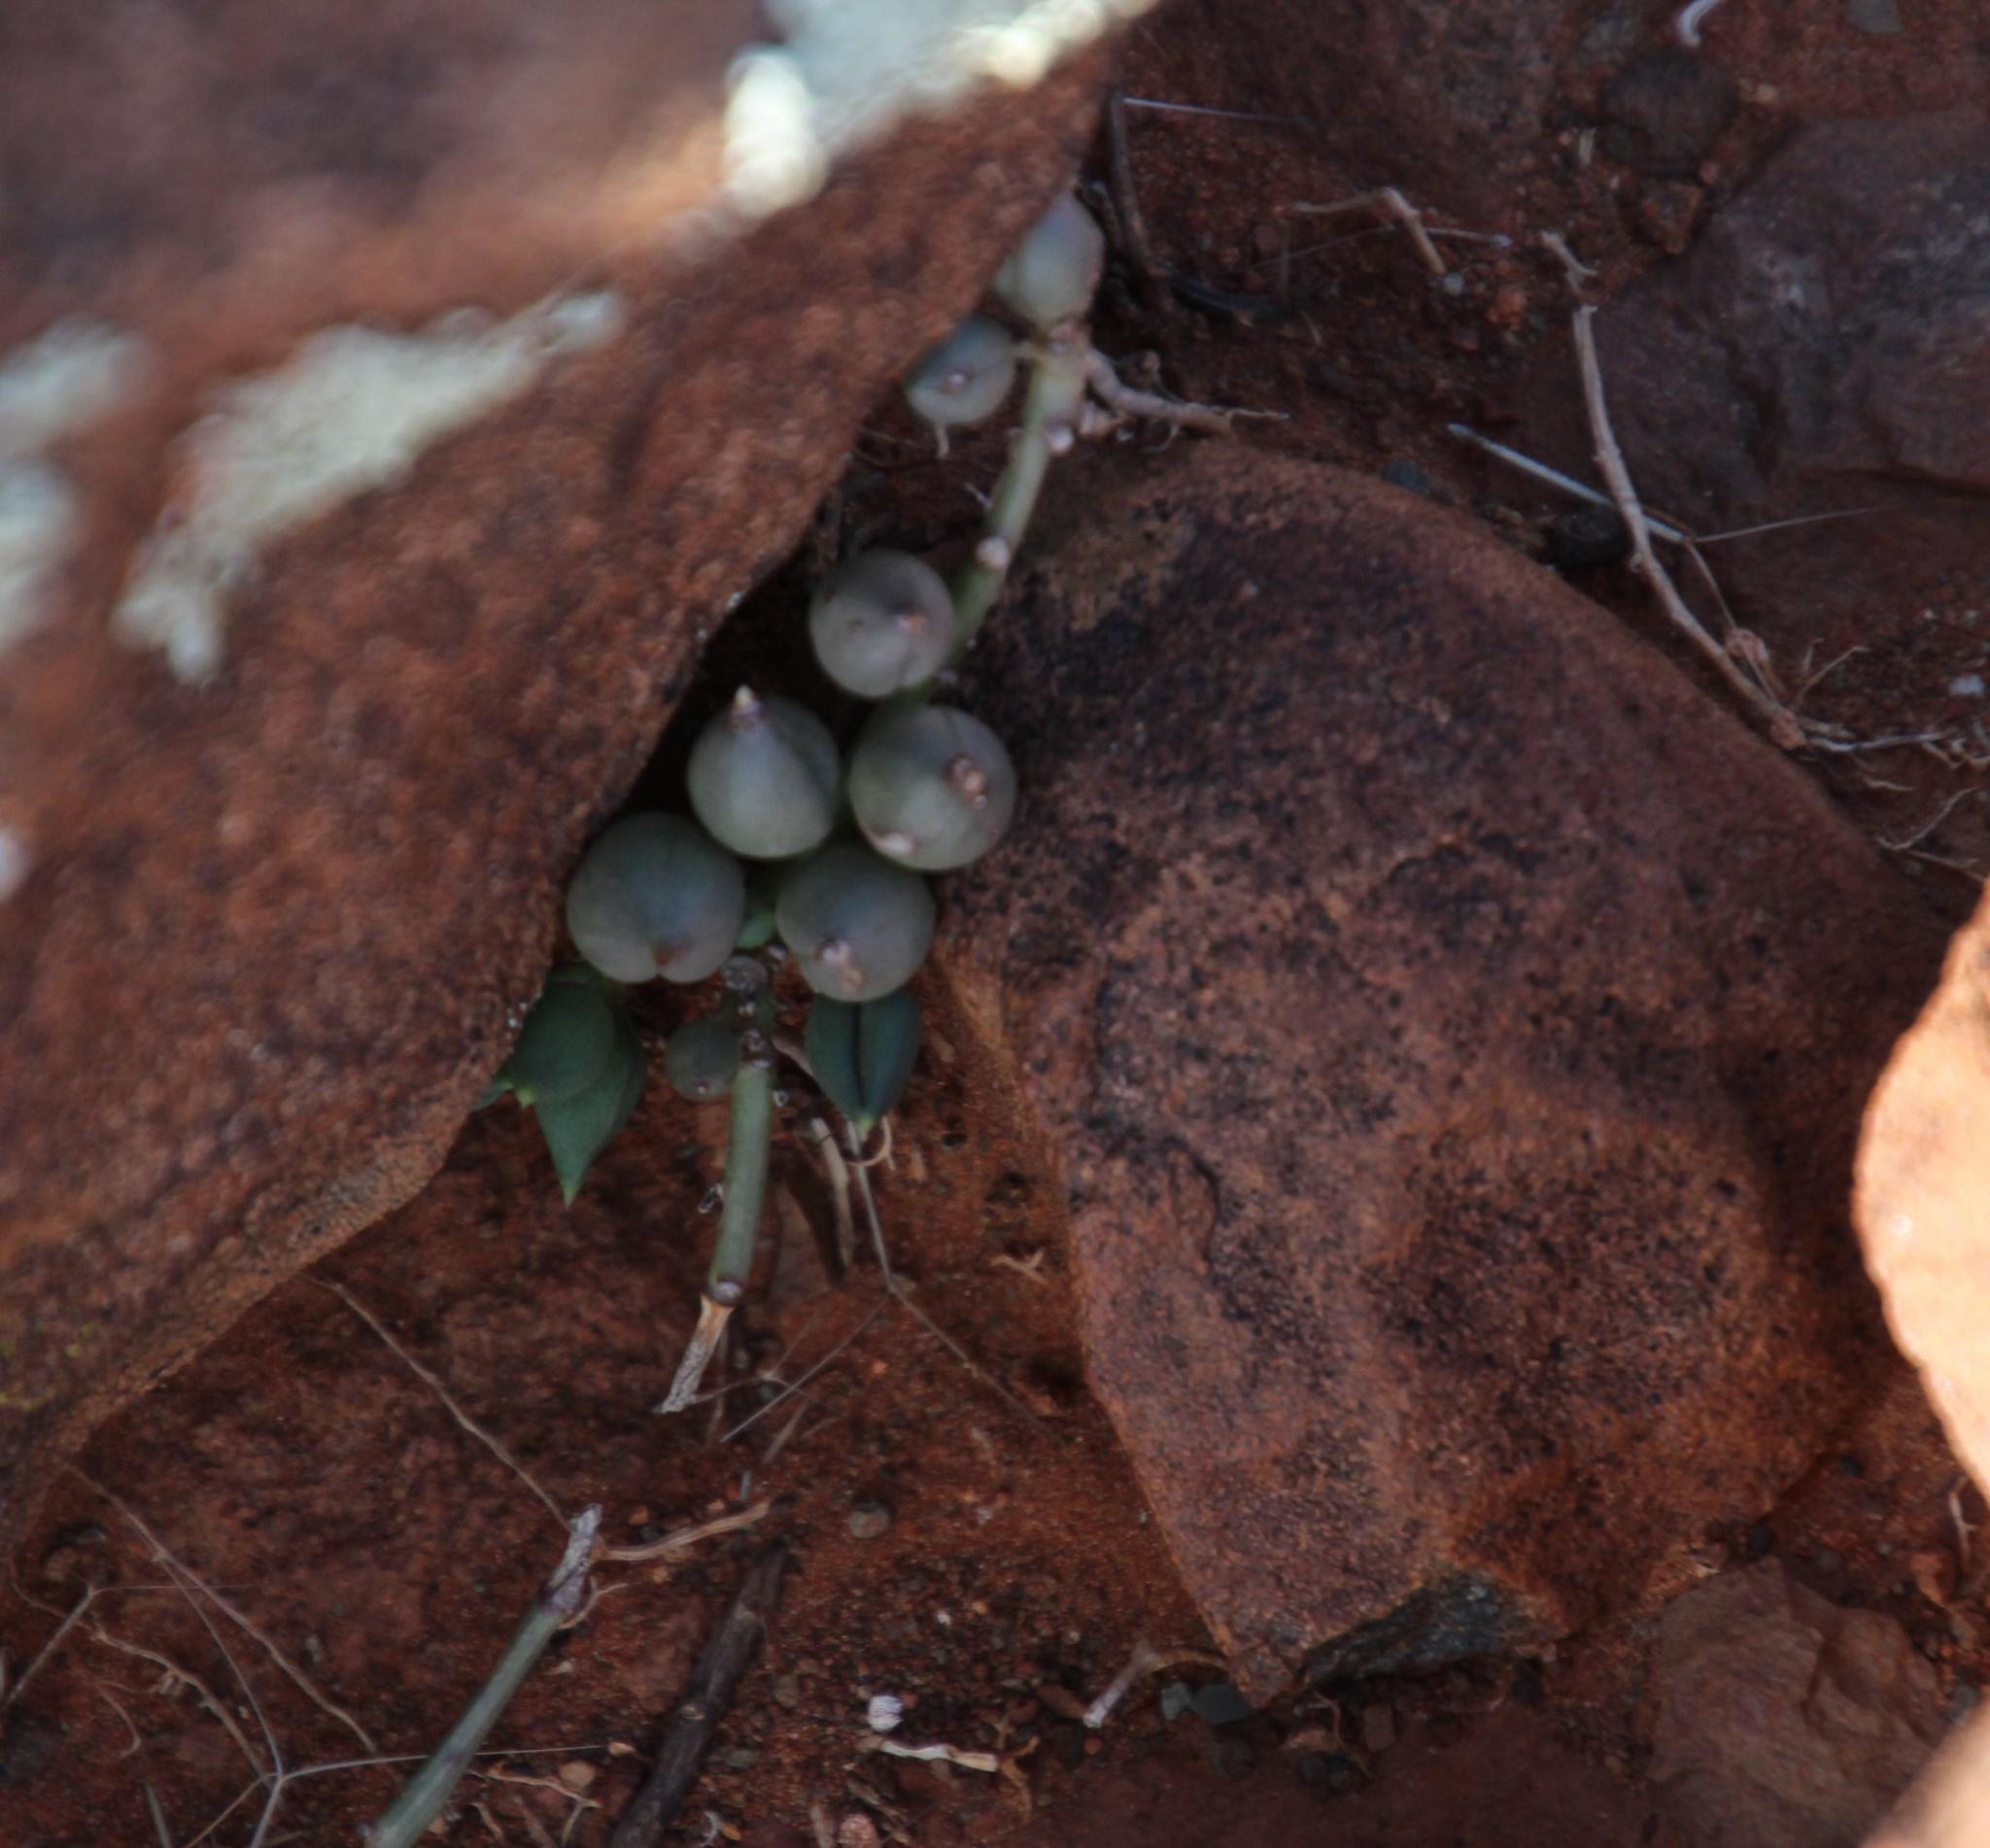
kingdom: Plantae
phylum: Tracheophyta
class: Magnoliopsida
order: Asterales
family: Asteraceae
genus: Curio
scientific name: Curio radicans
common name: Creeping-berry
